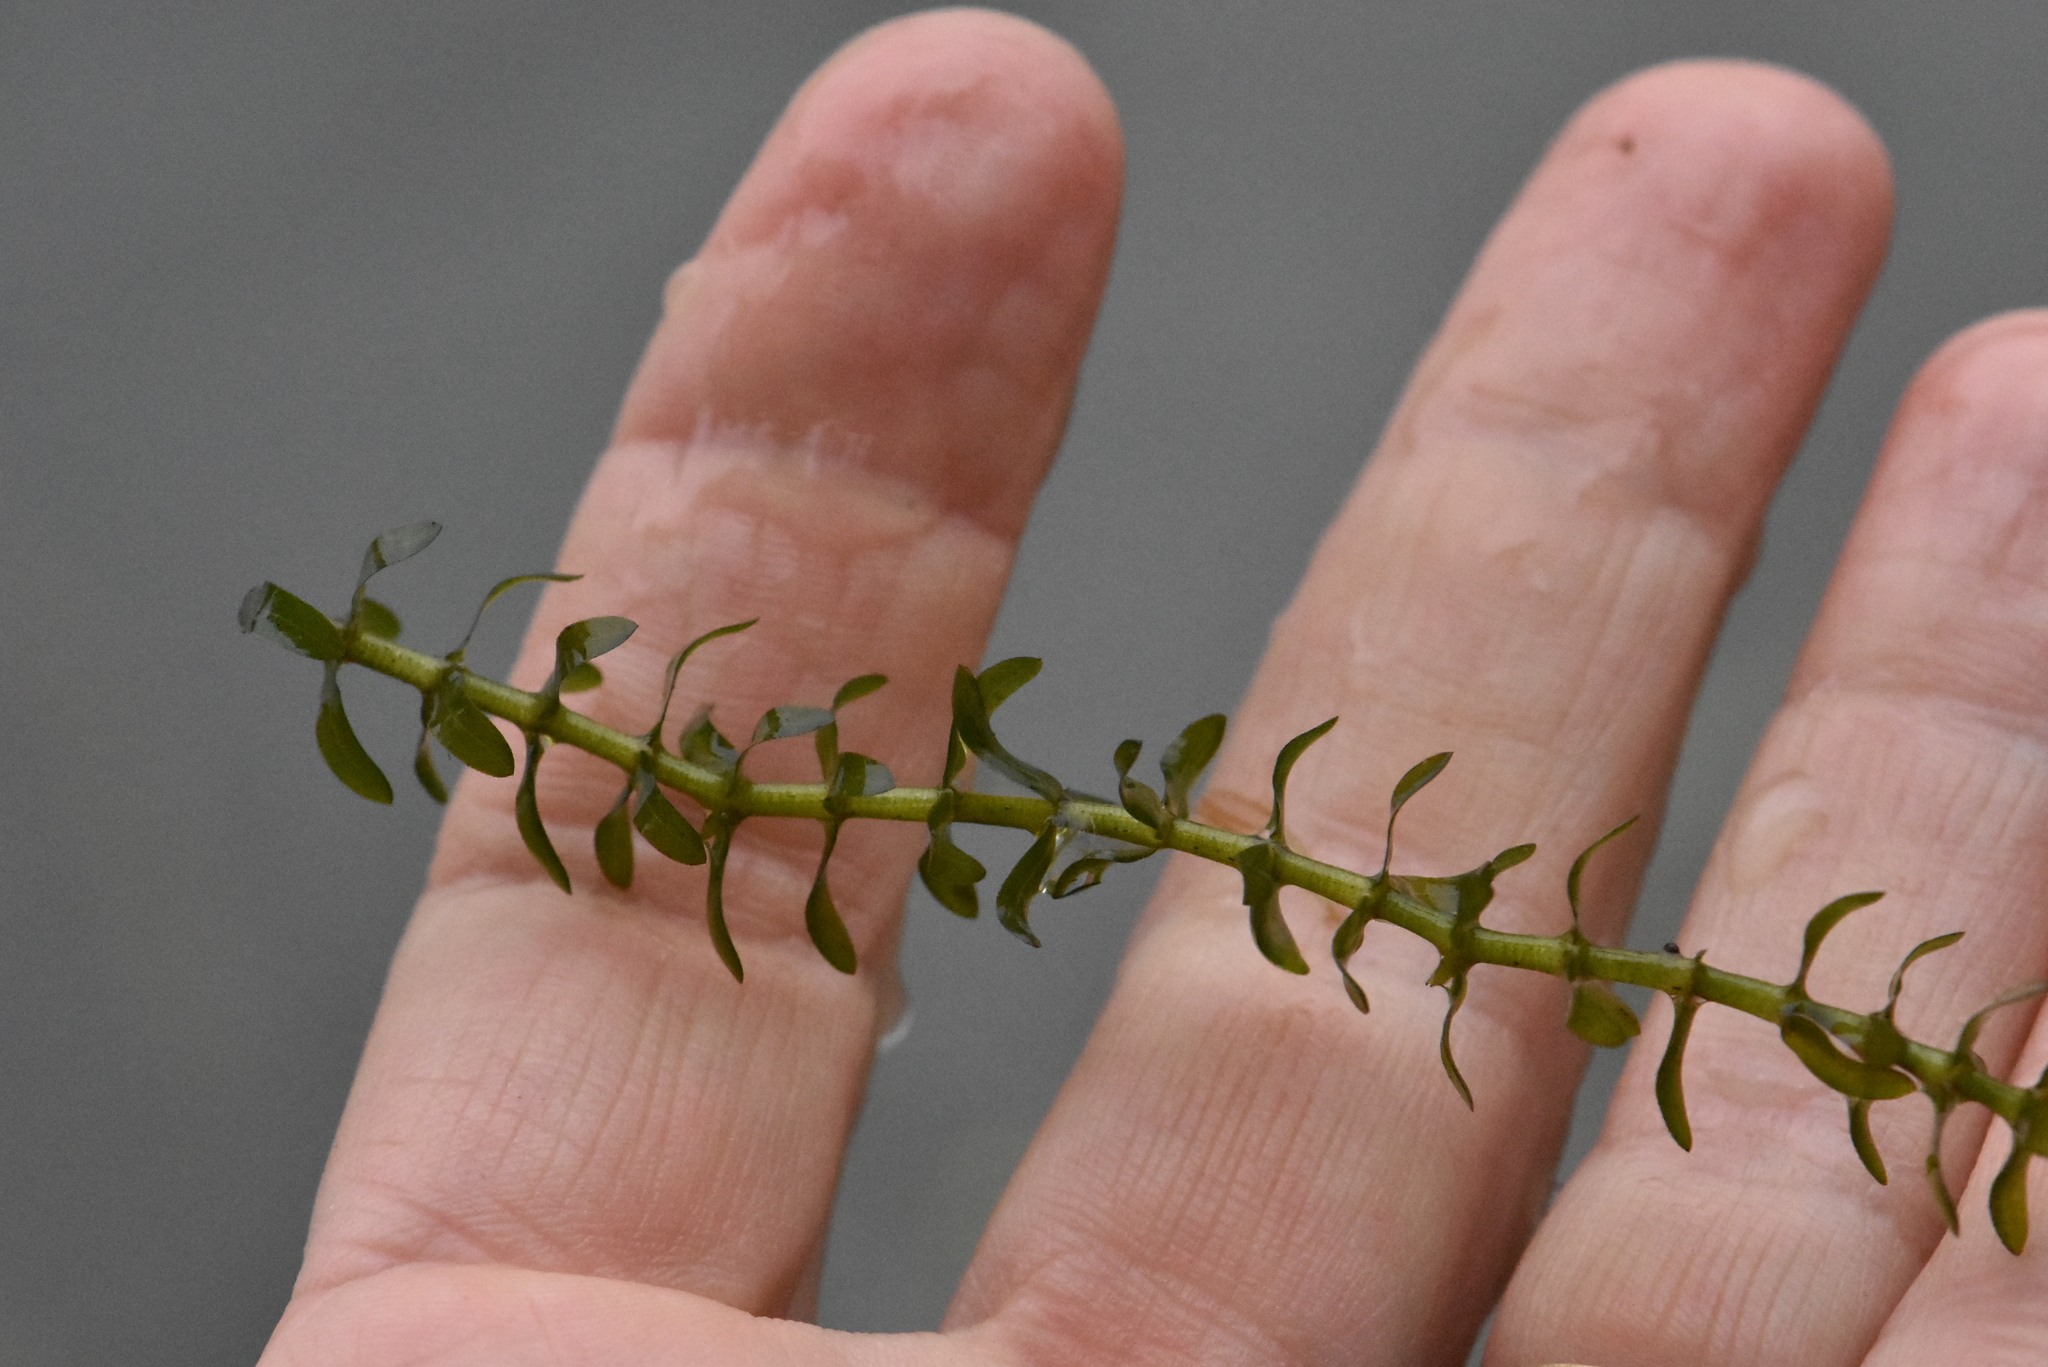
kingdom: Plantae
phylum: Tracheophyta
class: Liliopsida
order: Alismatales
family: Hydrocharitaceae
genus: Elodea
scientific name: Elodea canadensis
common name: Canadian waterweed
